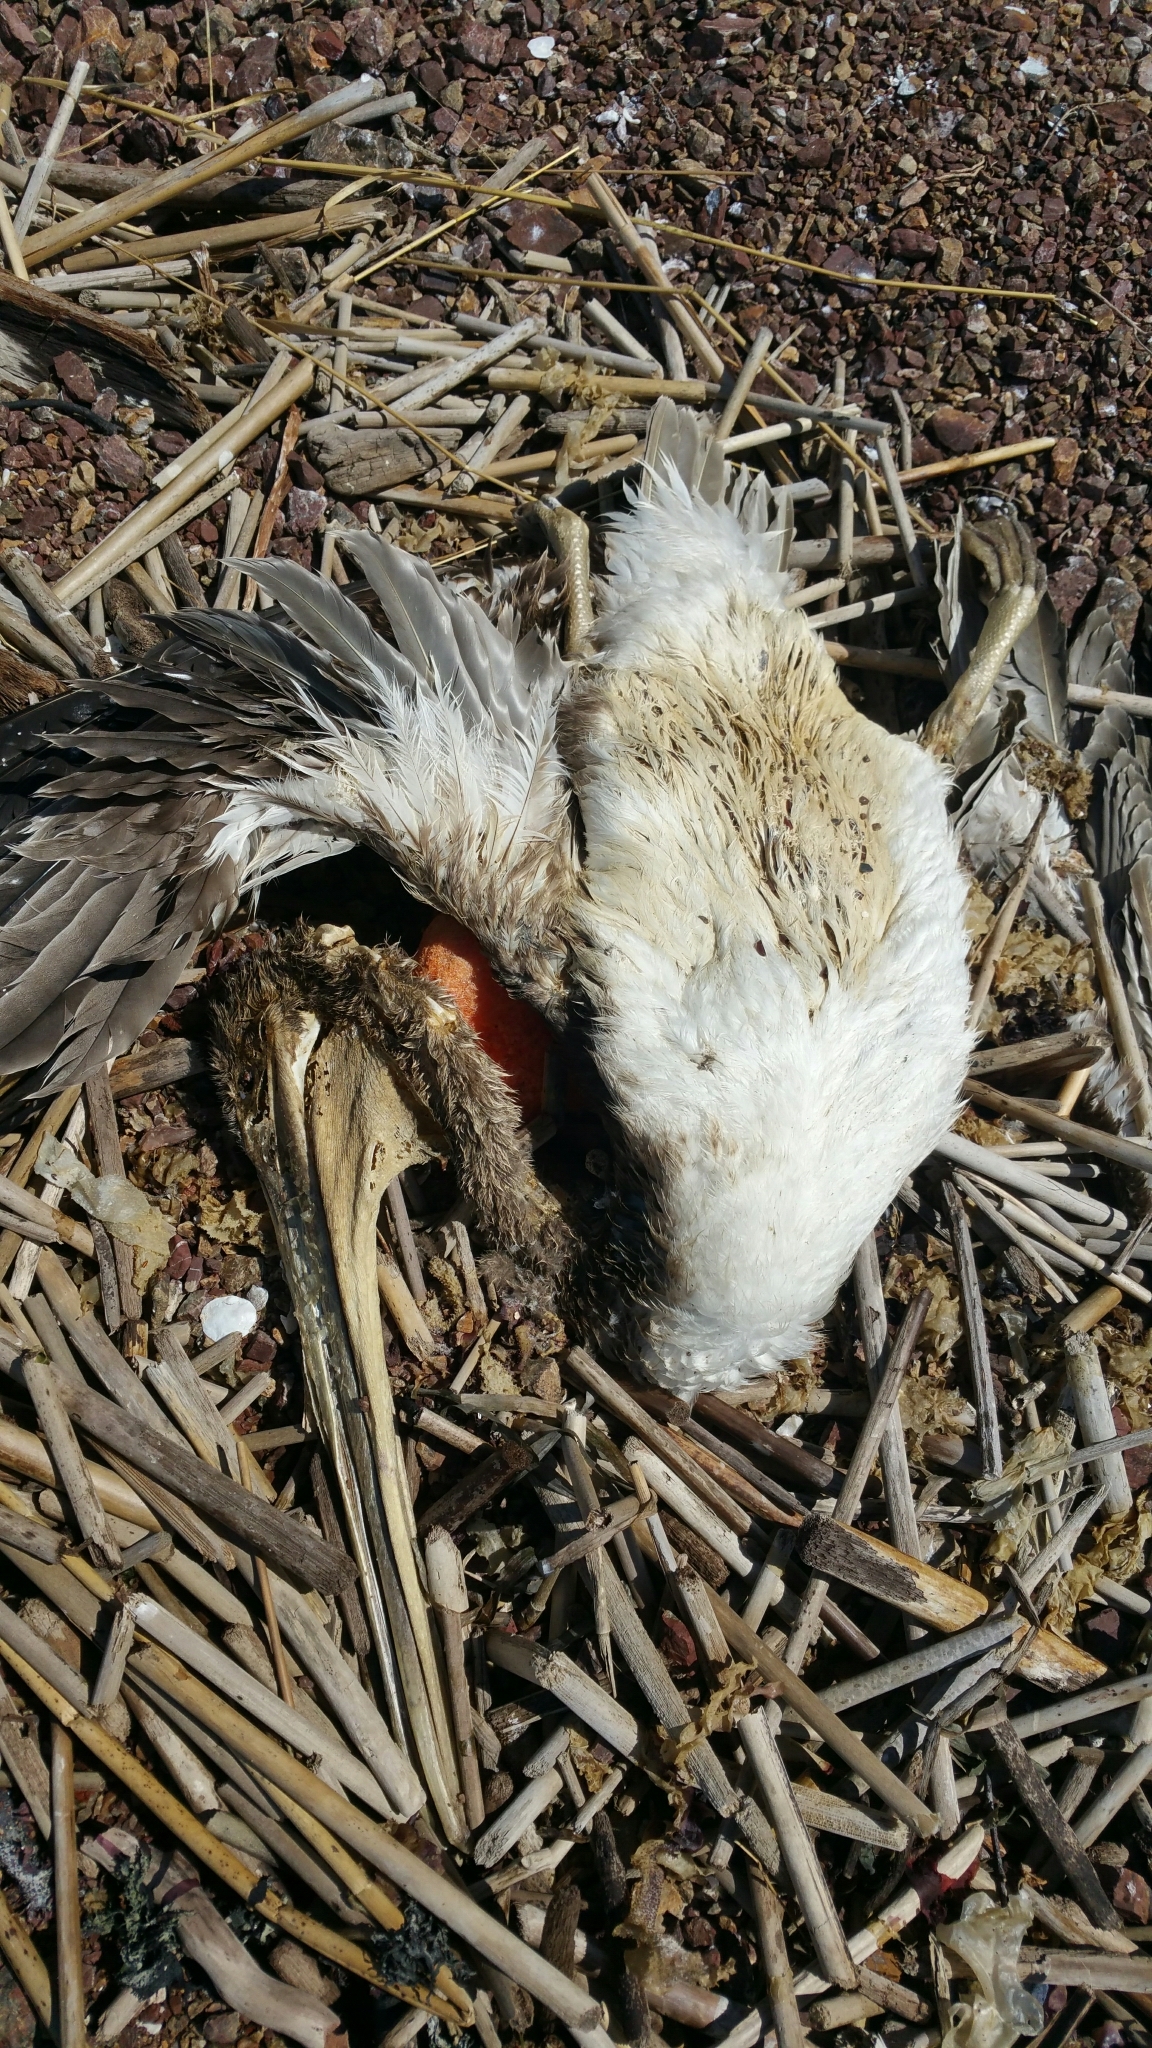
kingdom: Animalia
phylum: Chordata
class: Aves
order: Pelecaniformes
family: Pelecanidae
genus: Pelecanus
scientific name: Pelecanus occidentalis
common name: Brown pelican
